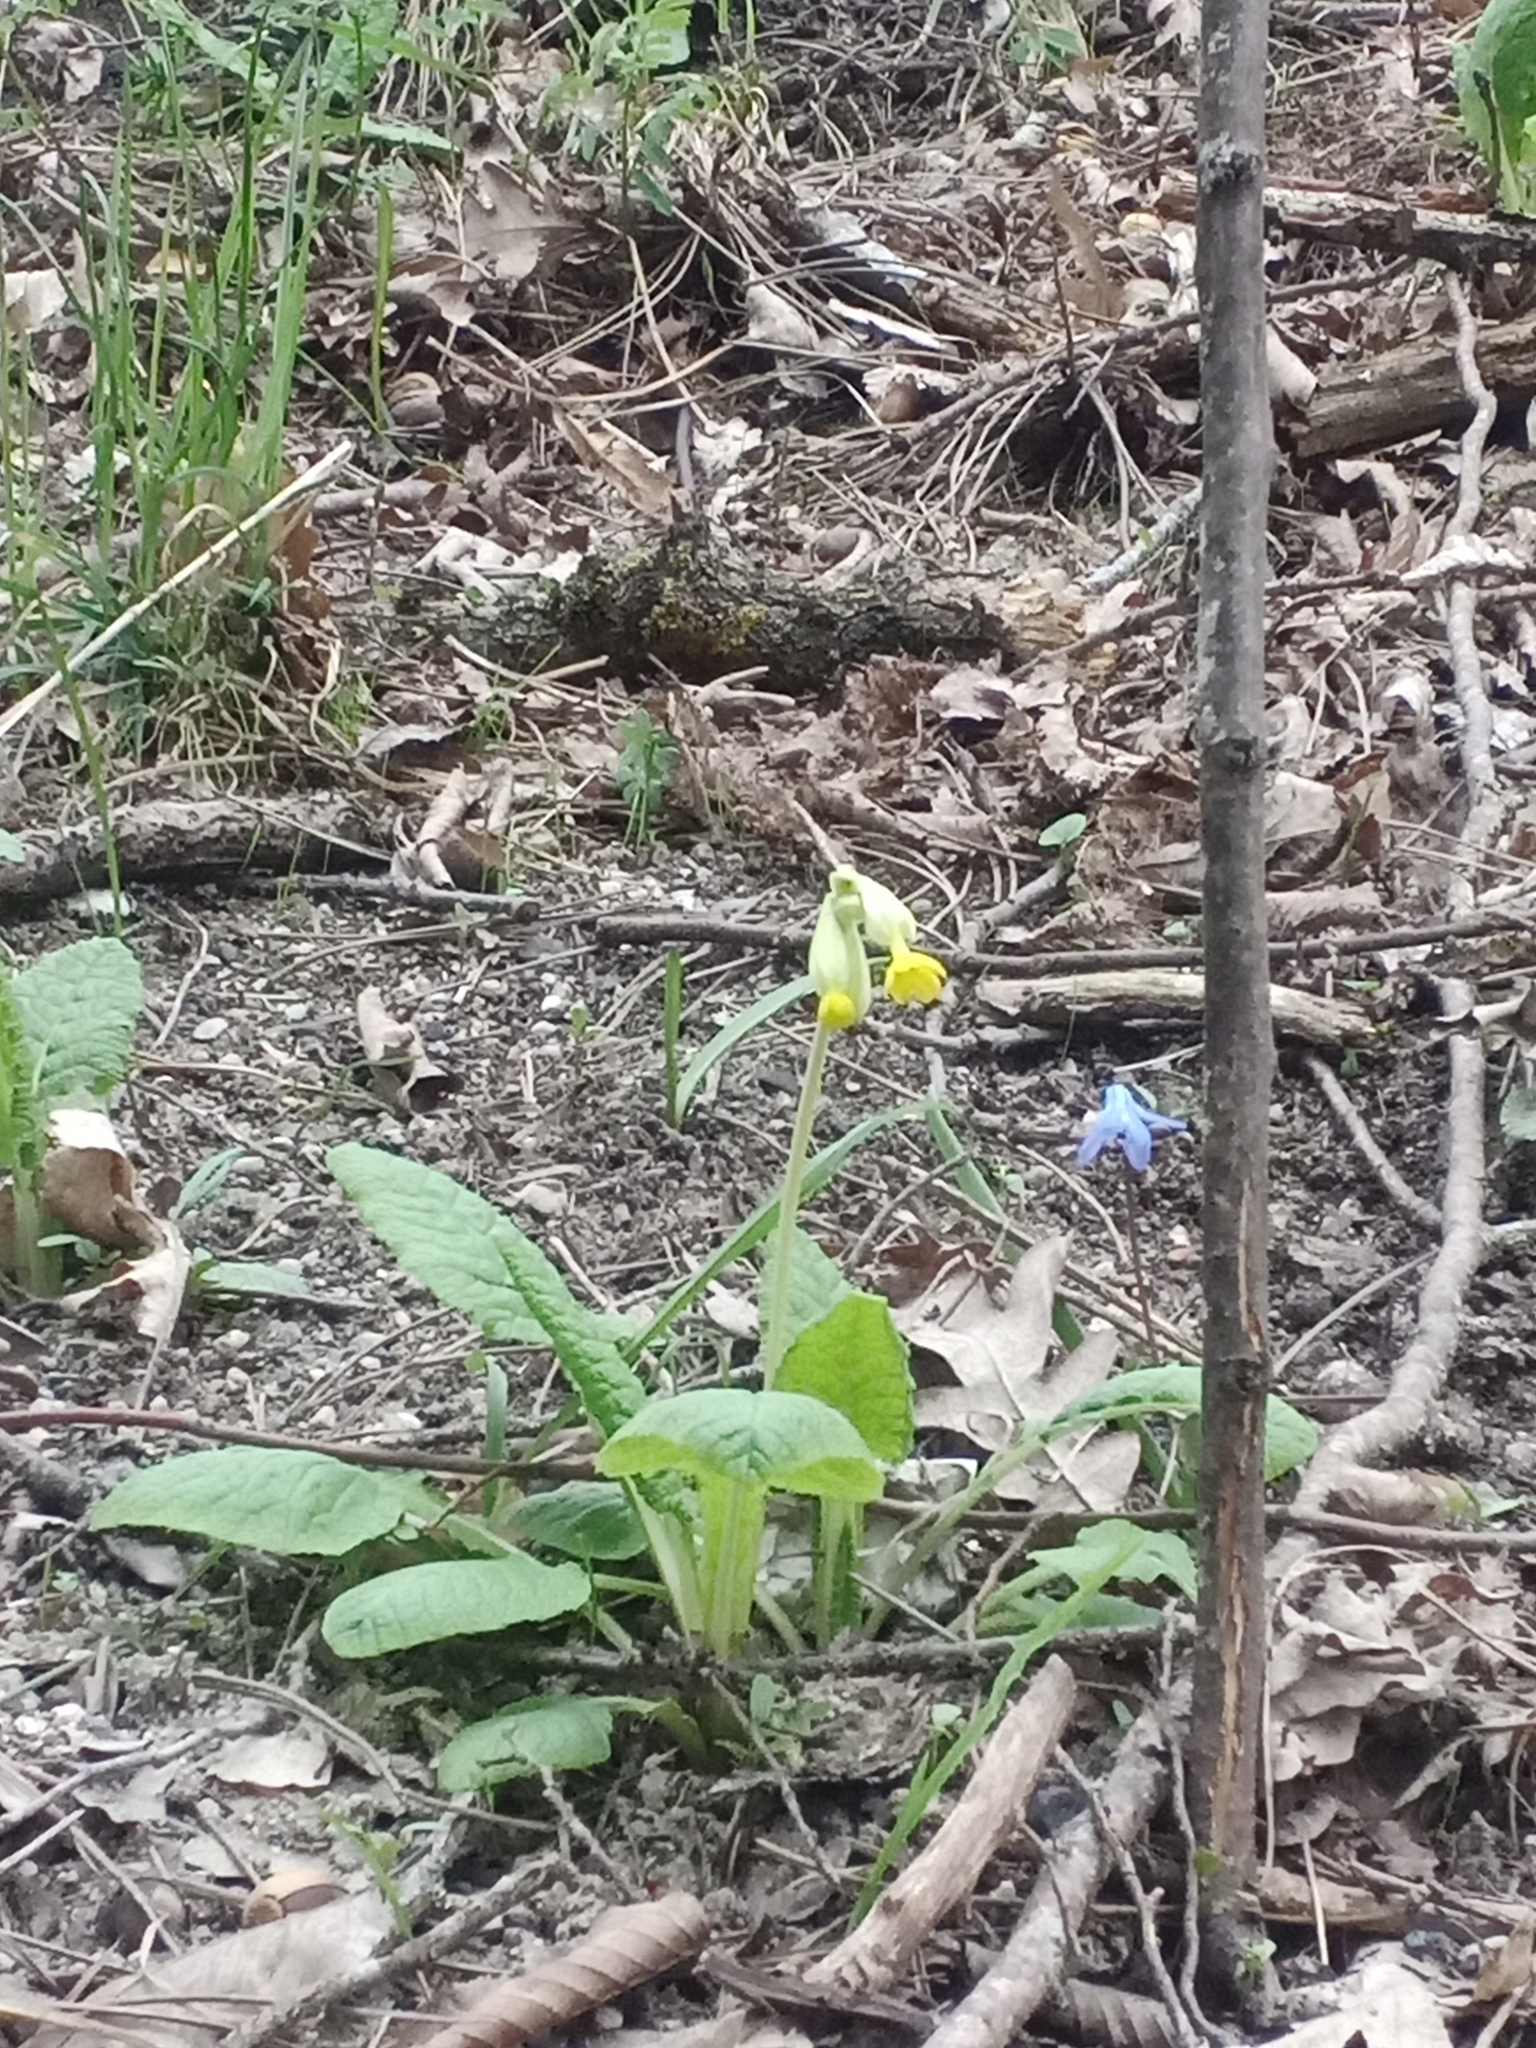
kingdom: Plantae
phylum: Tracheophyta
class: Magnoliopsida
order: Ericales
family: Primulaceae
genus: Primula
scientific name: Primula veris
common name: Cowslip
